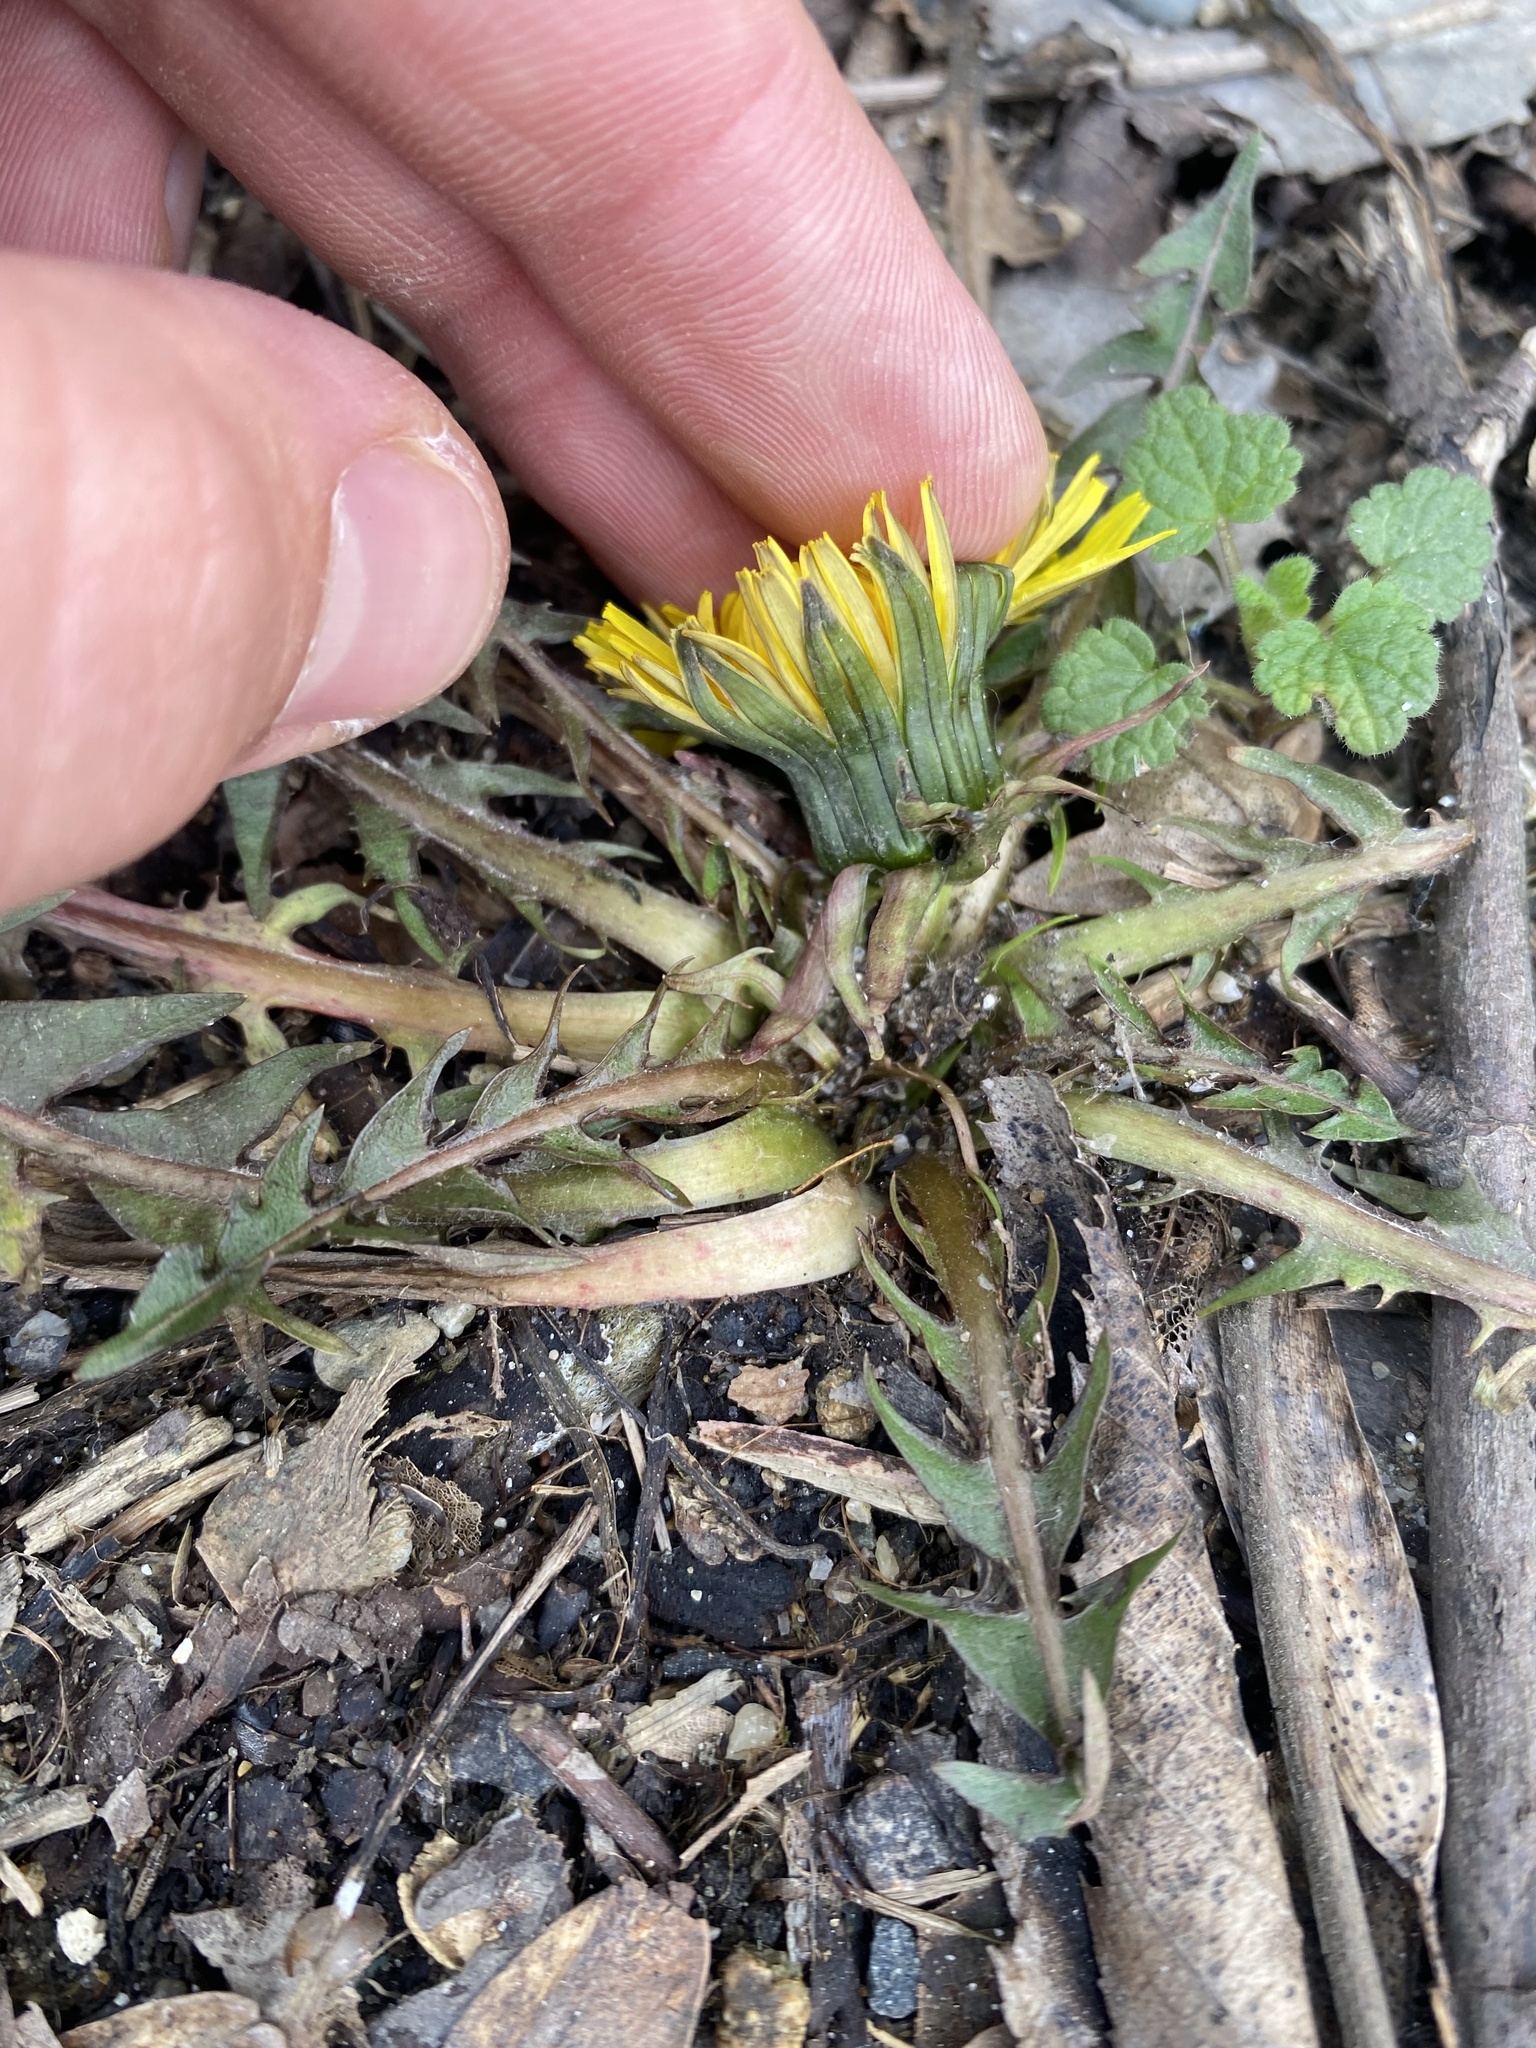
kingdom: Plantae
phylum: Tracheophyta
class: Magnoliopsida
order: Asterales
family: Asteraceae
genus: Taraxacum
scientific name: Taraxacum officinale
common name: Common dandelion
